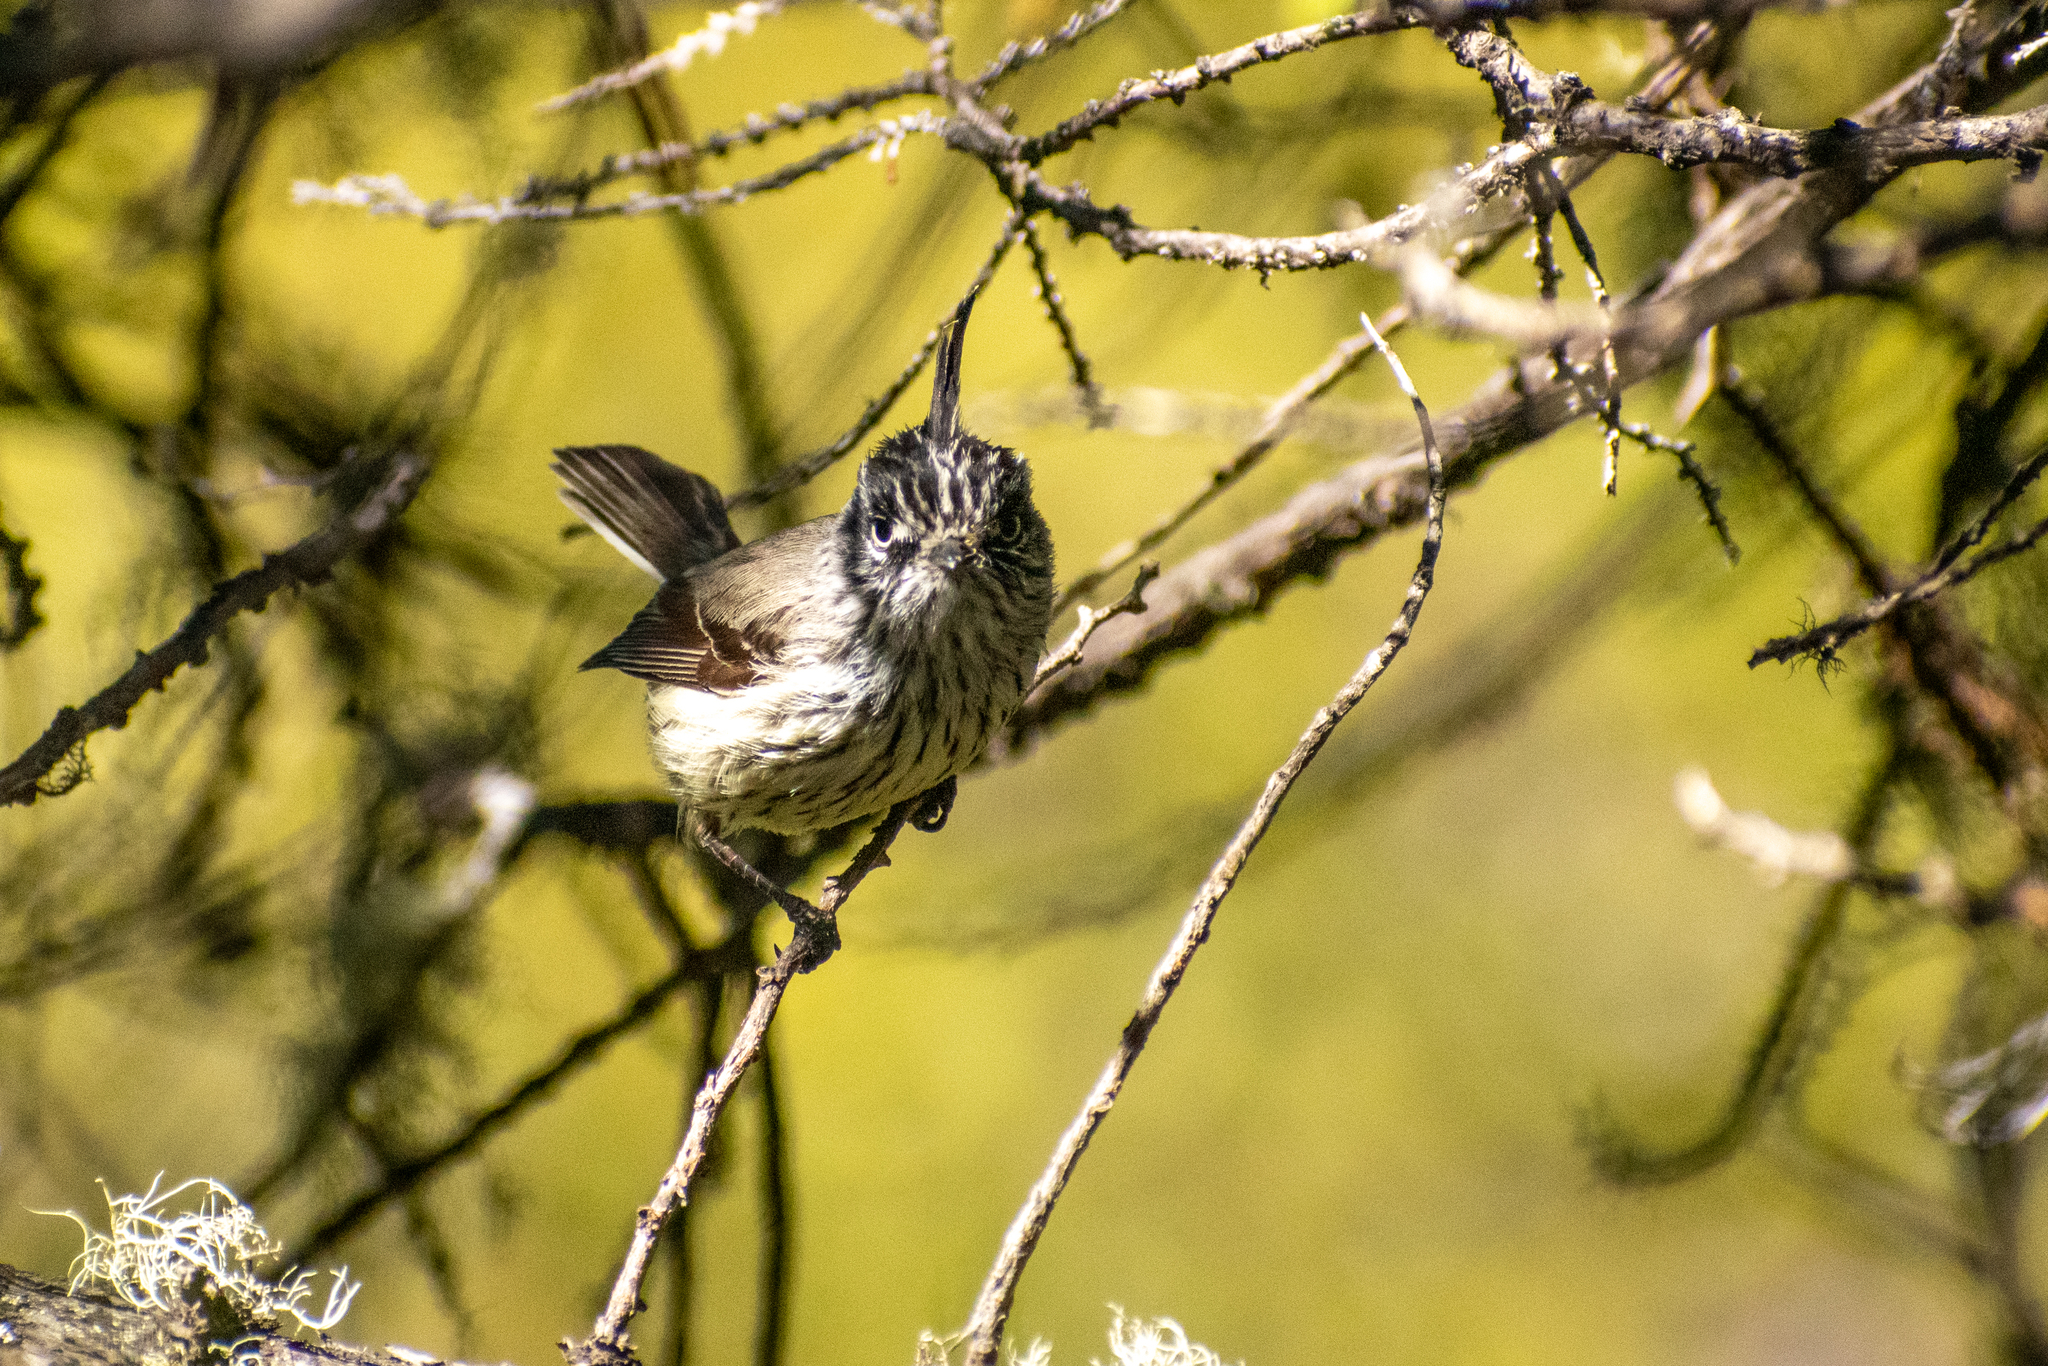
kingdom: Animalia
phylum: Chordata
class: Aves
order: Passeriformes
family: Tyrannidae
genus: Anairetes
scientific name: Anairetes parulus
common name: Tufted tit-tyrant
